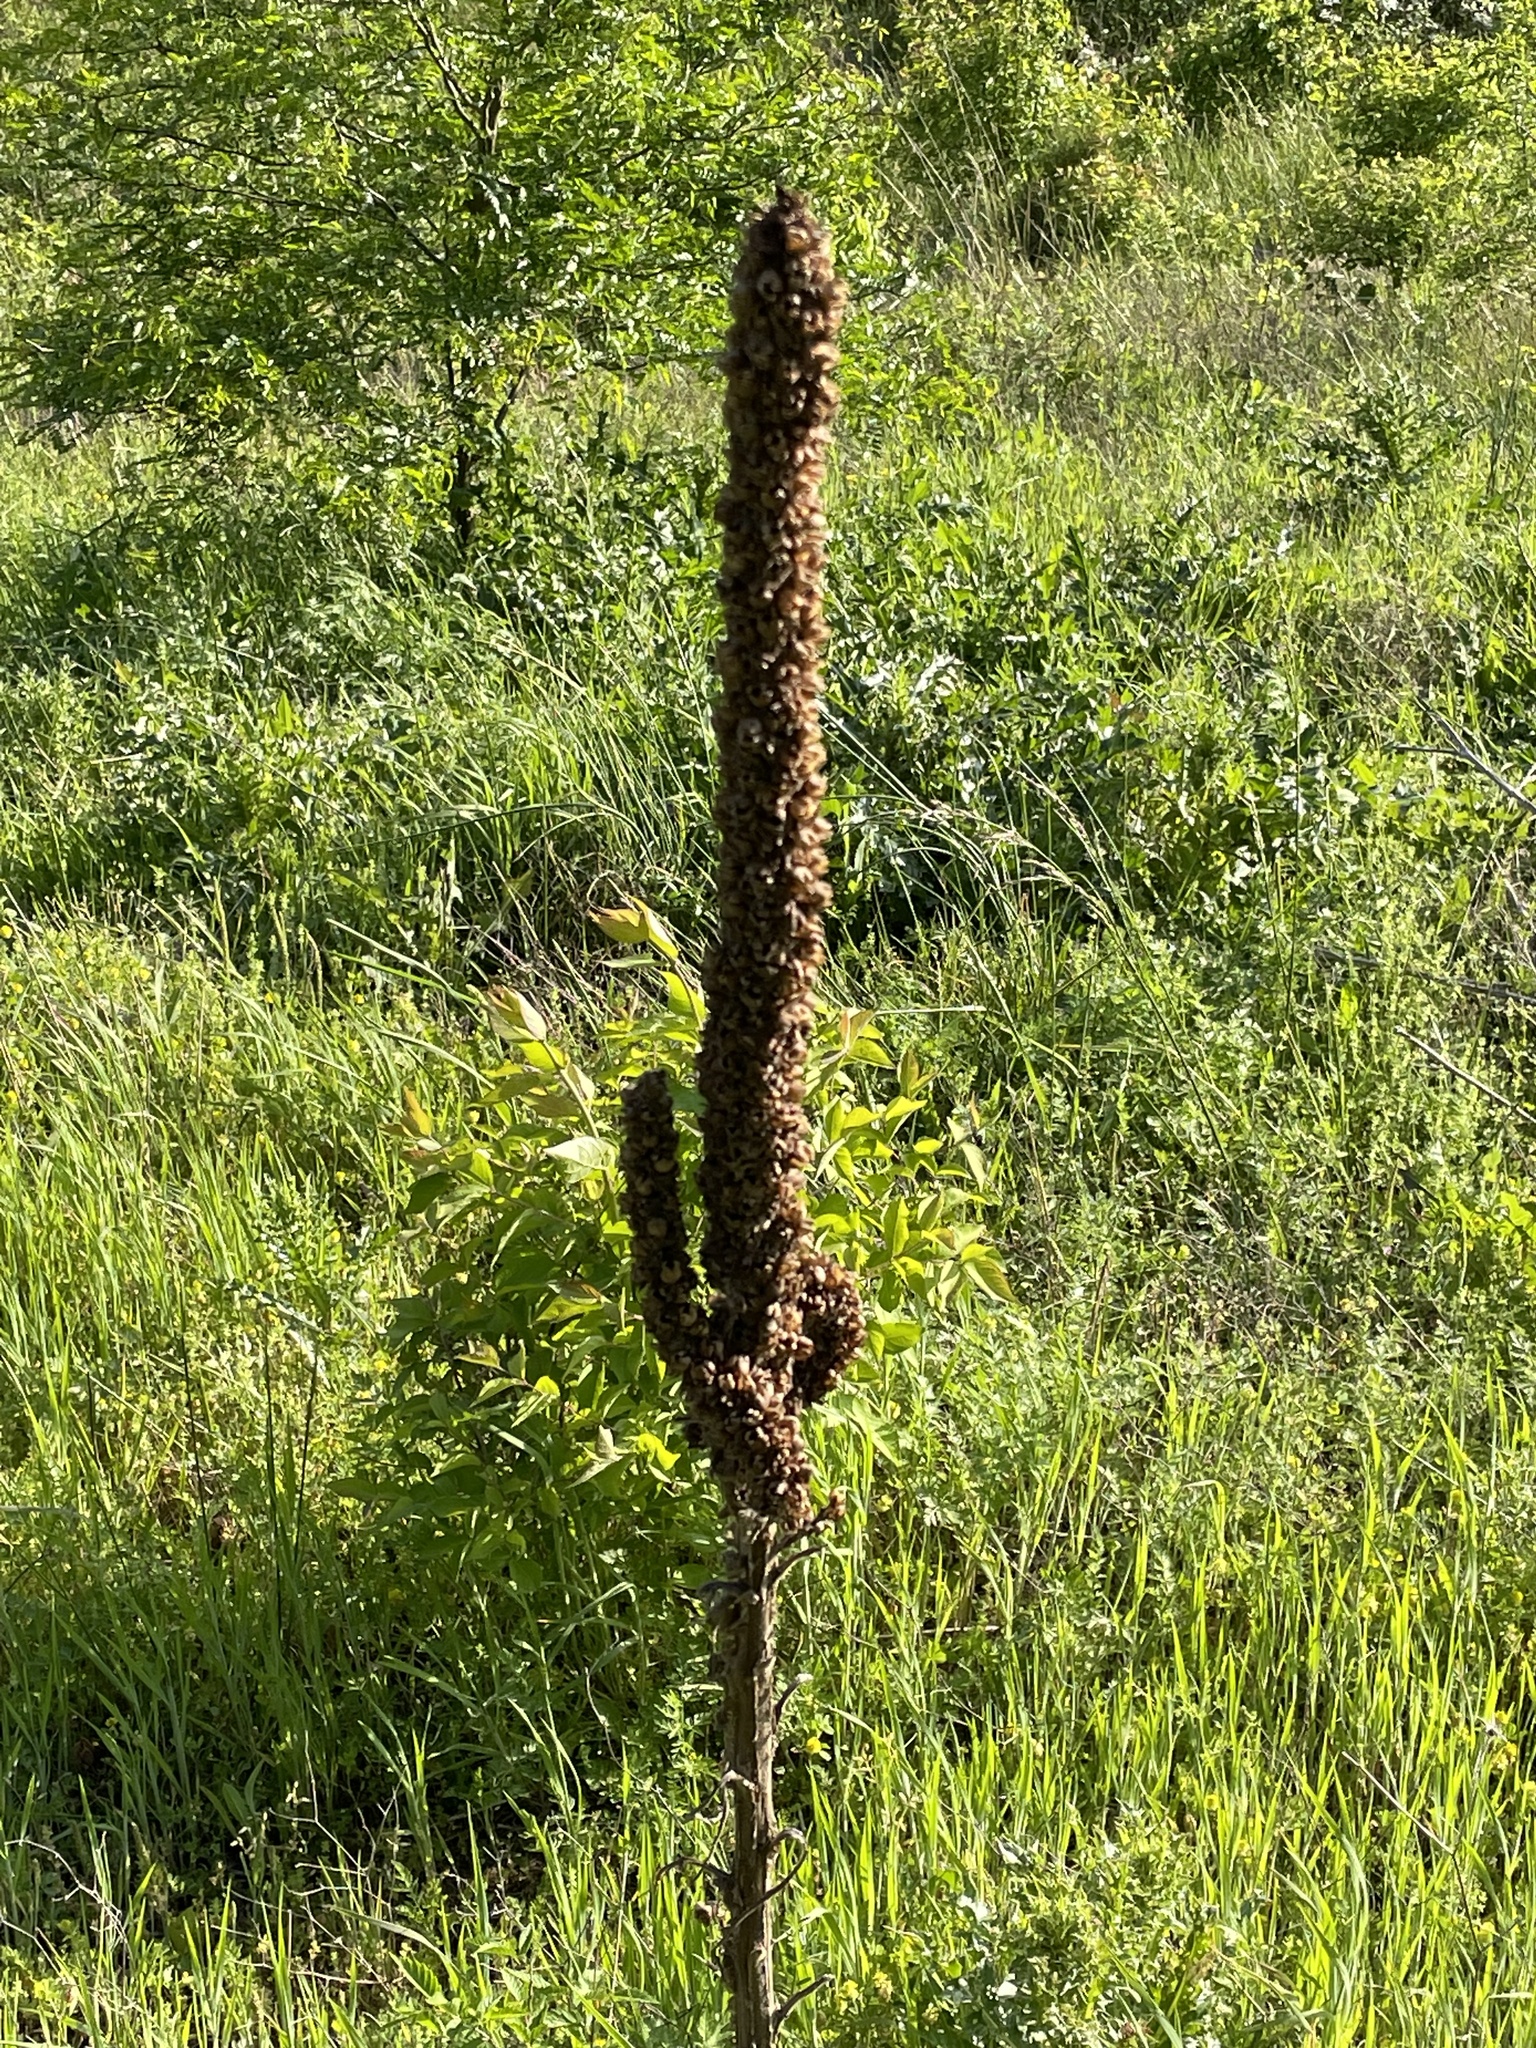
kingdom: Plantae
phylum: Tracheophyta
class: Magnoliopsida
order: Lamiales
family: Scrophulariaceae
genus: Verbascum
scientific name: Verbascum thapsus
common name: Common mullein
